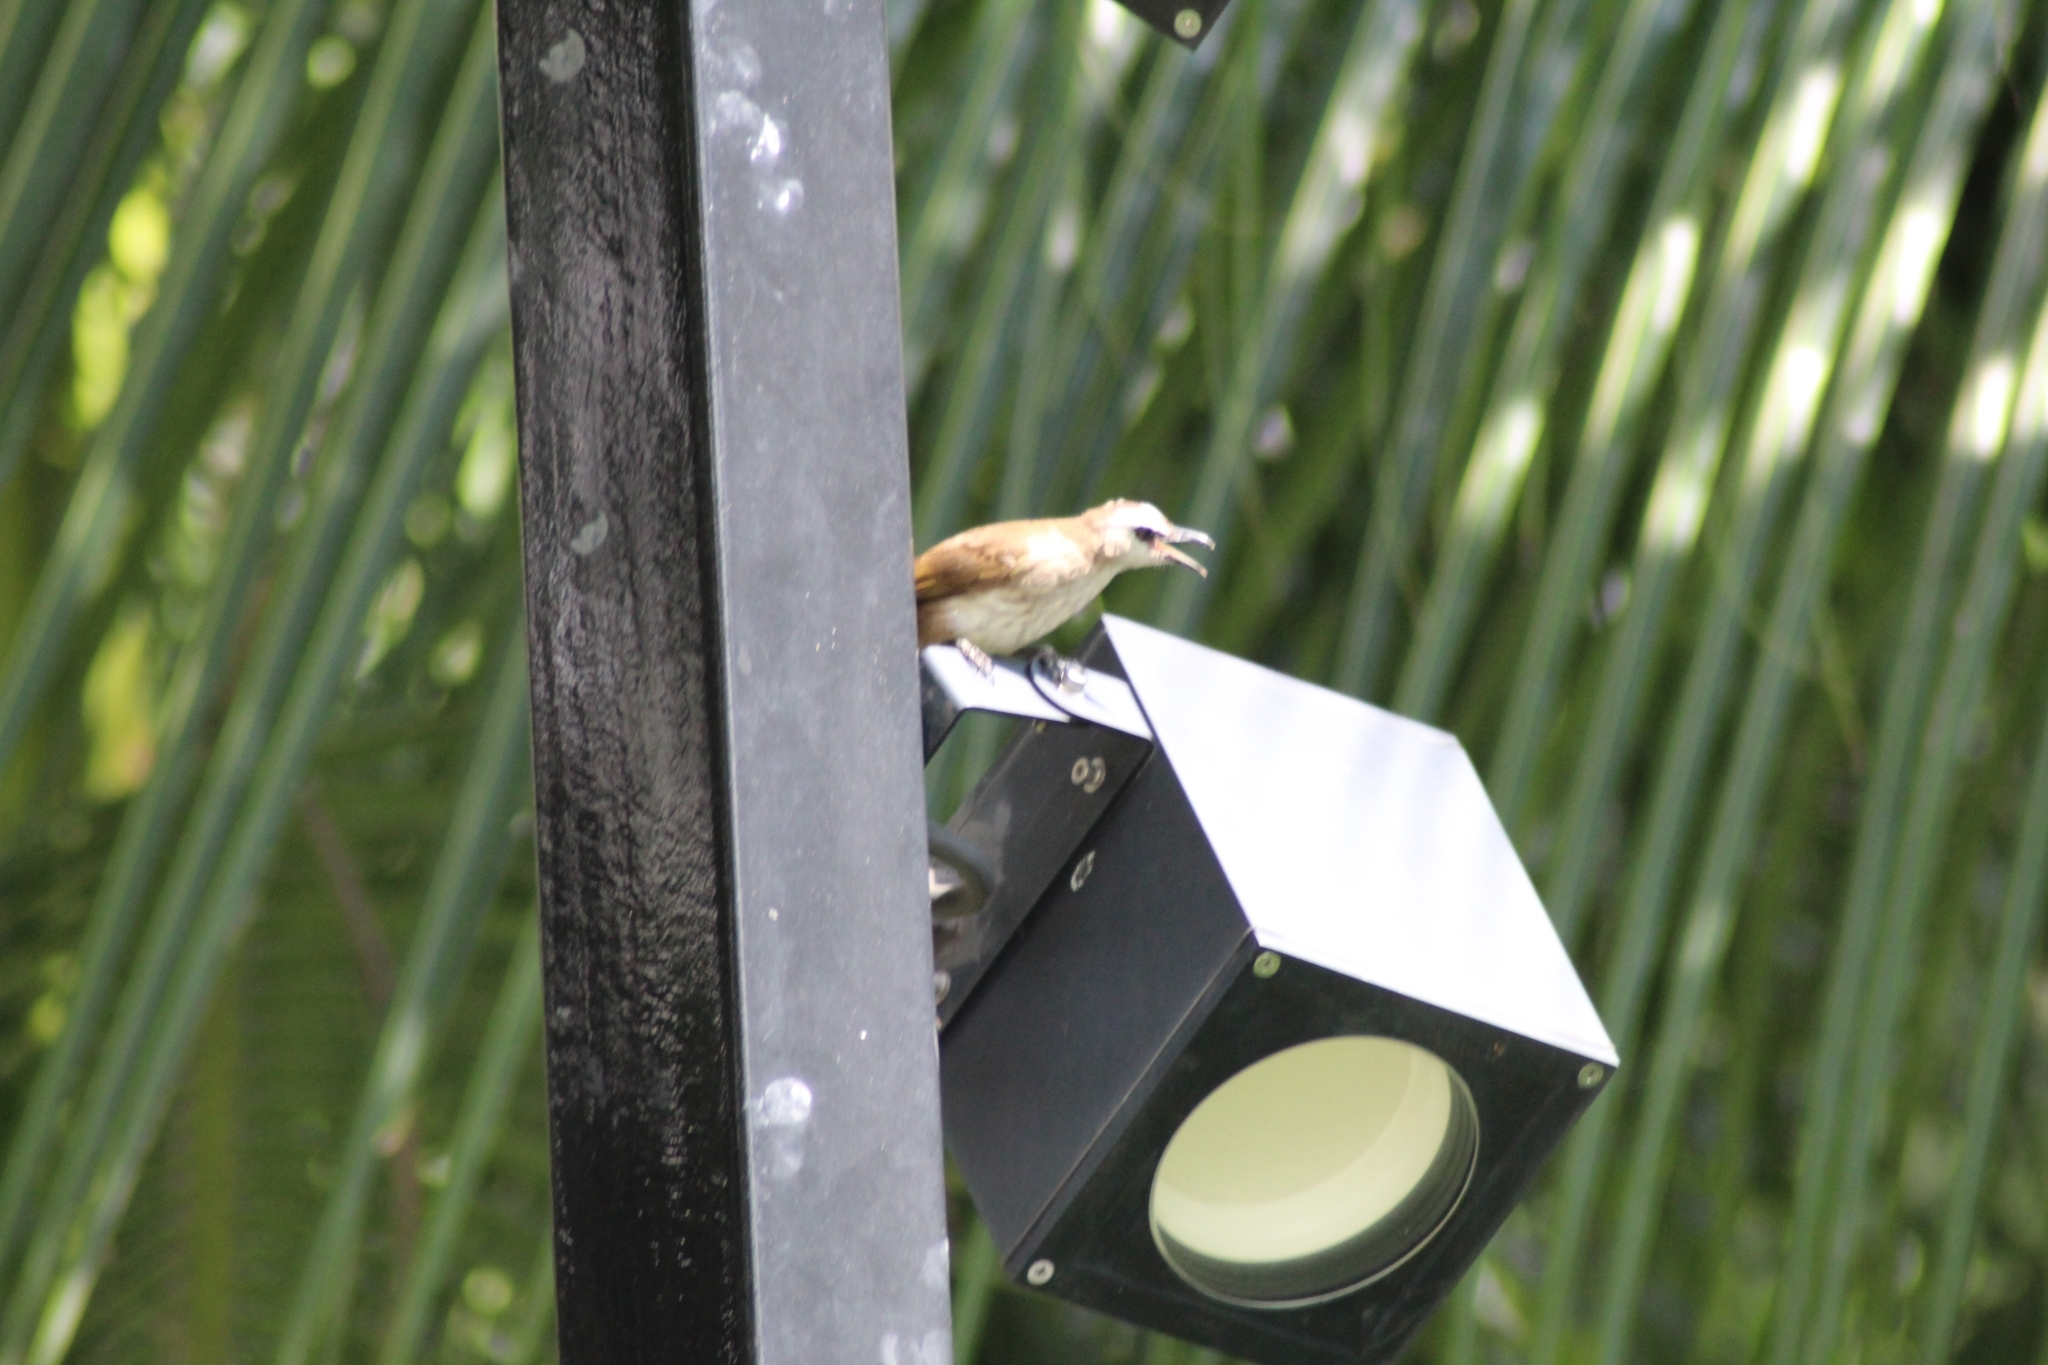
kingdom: Animalia
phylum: Chordata
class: Aves
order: Passeriformes
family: Pycnonotidae
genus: Pycnonotus
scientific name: Pycnonotus goiavier
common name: Yellow-vented bulbul
